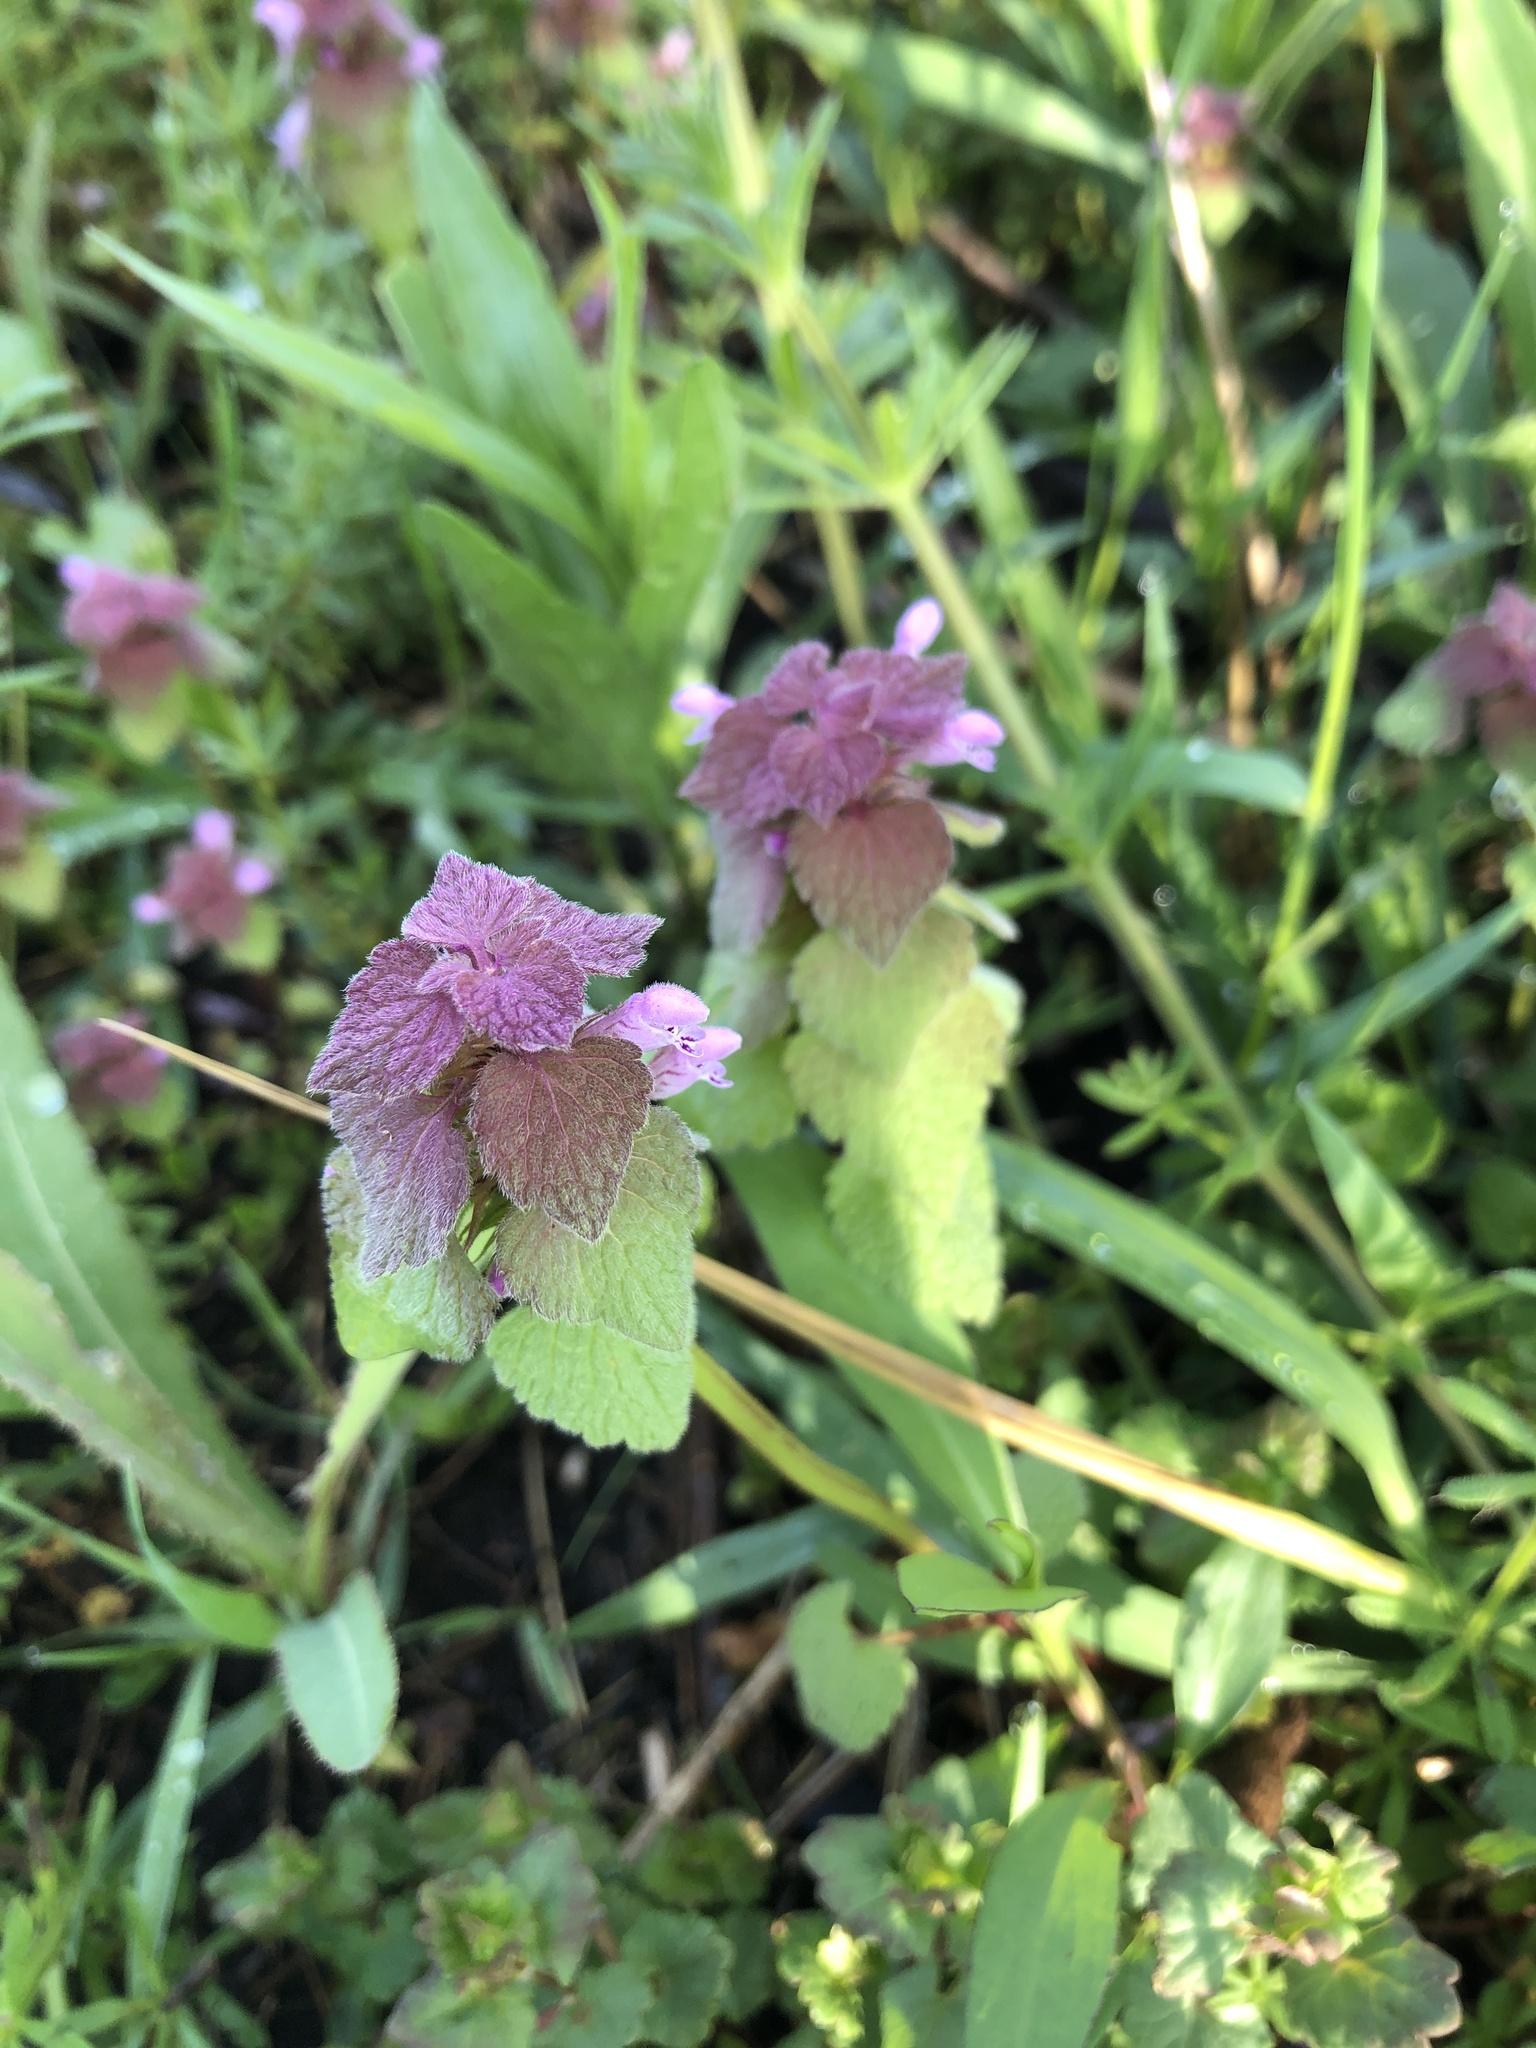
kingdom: Plantae
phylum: Tracheophyta
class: Magnoliopsida
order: Lamiales
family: Lamiaceae
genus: Lamium
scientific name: Lamium purpureum
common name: Red dead-nettle
